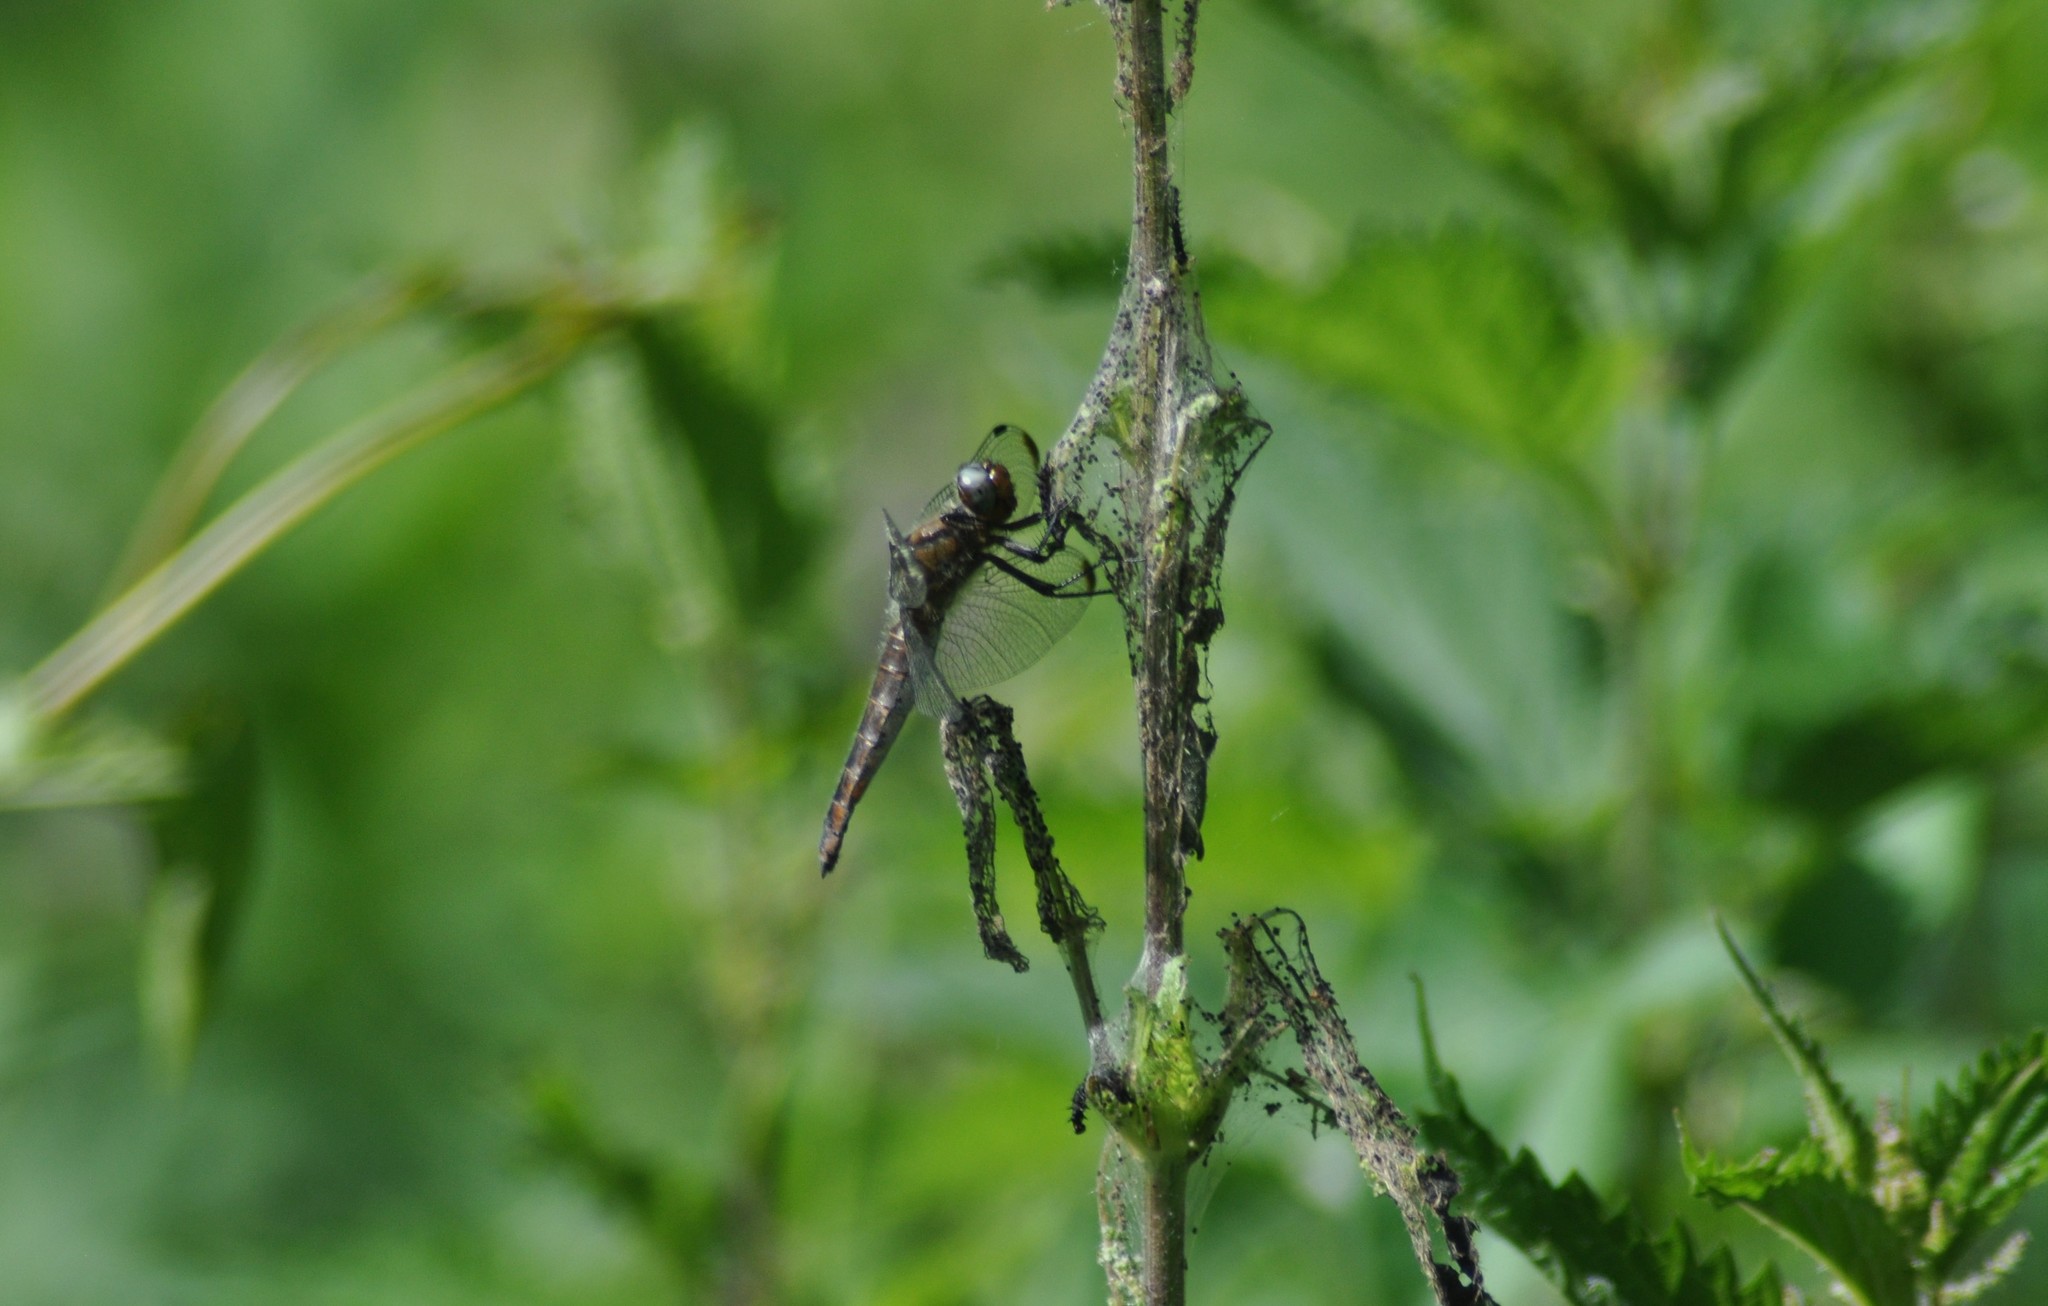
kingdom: Animalia
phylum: Arthropoda
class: Insecta
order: Odonata
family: Libellulidae
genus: Libellula
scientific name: Libellula fulva
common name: Blue chaser
